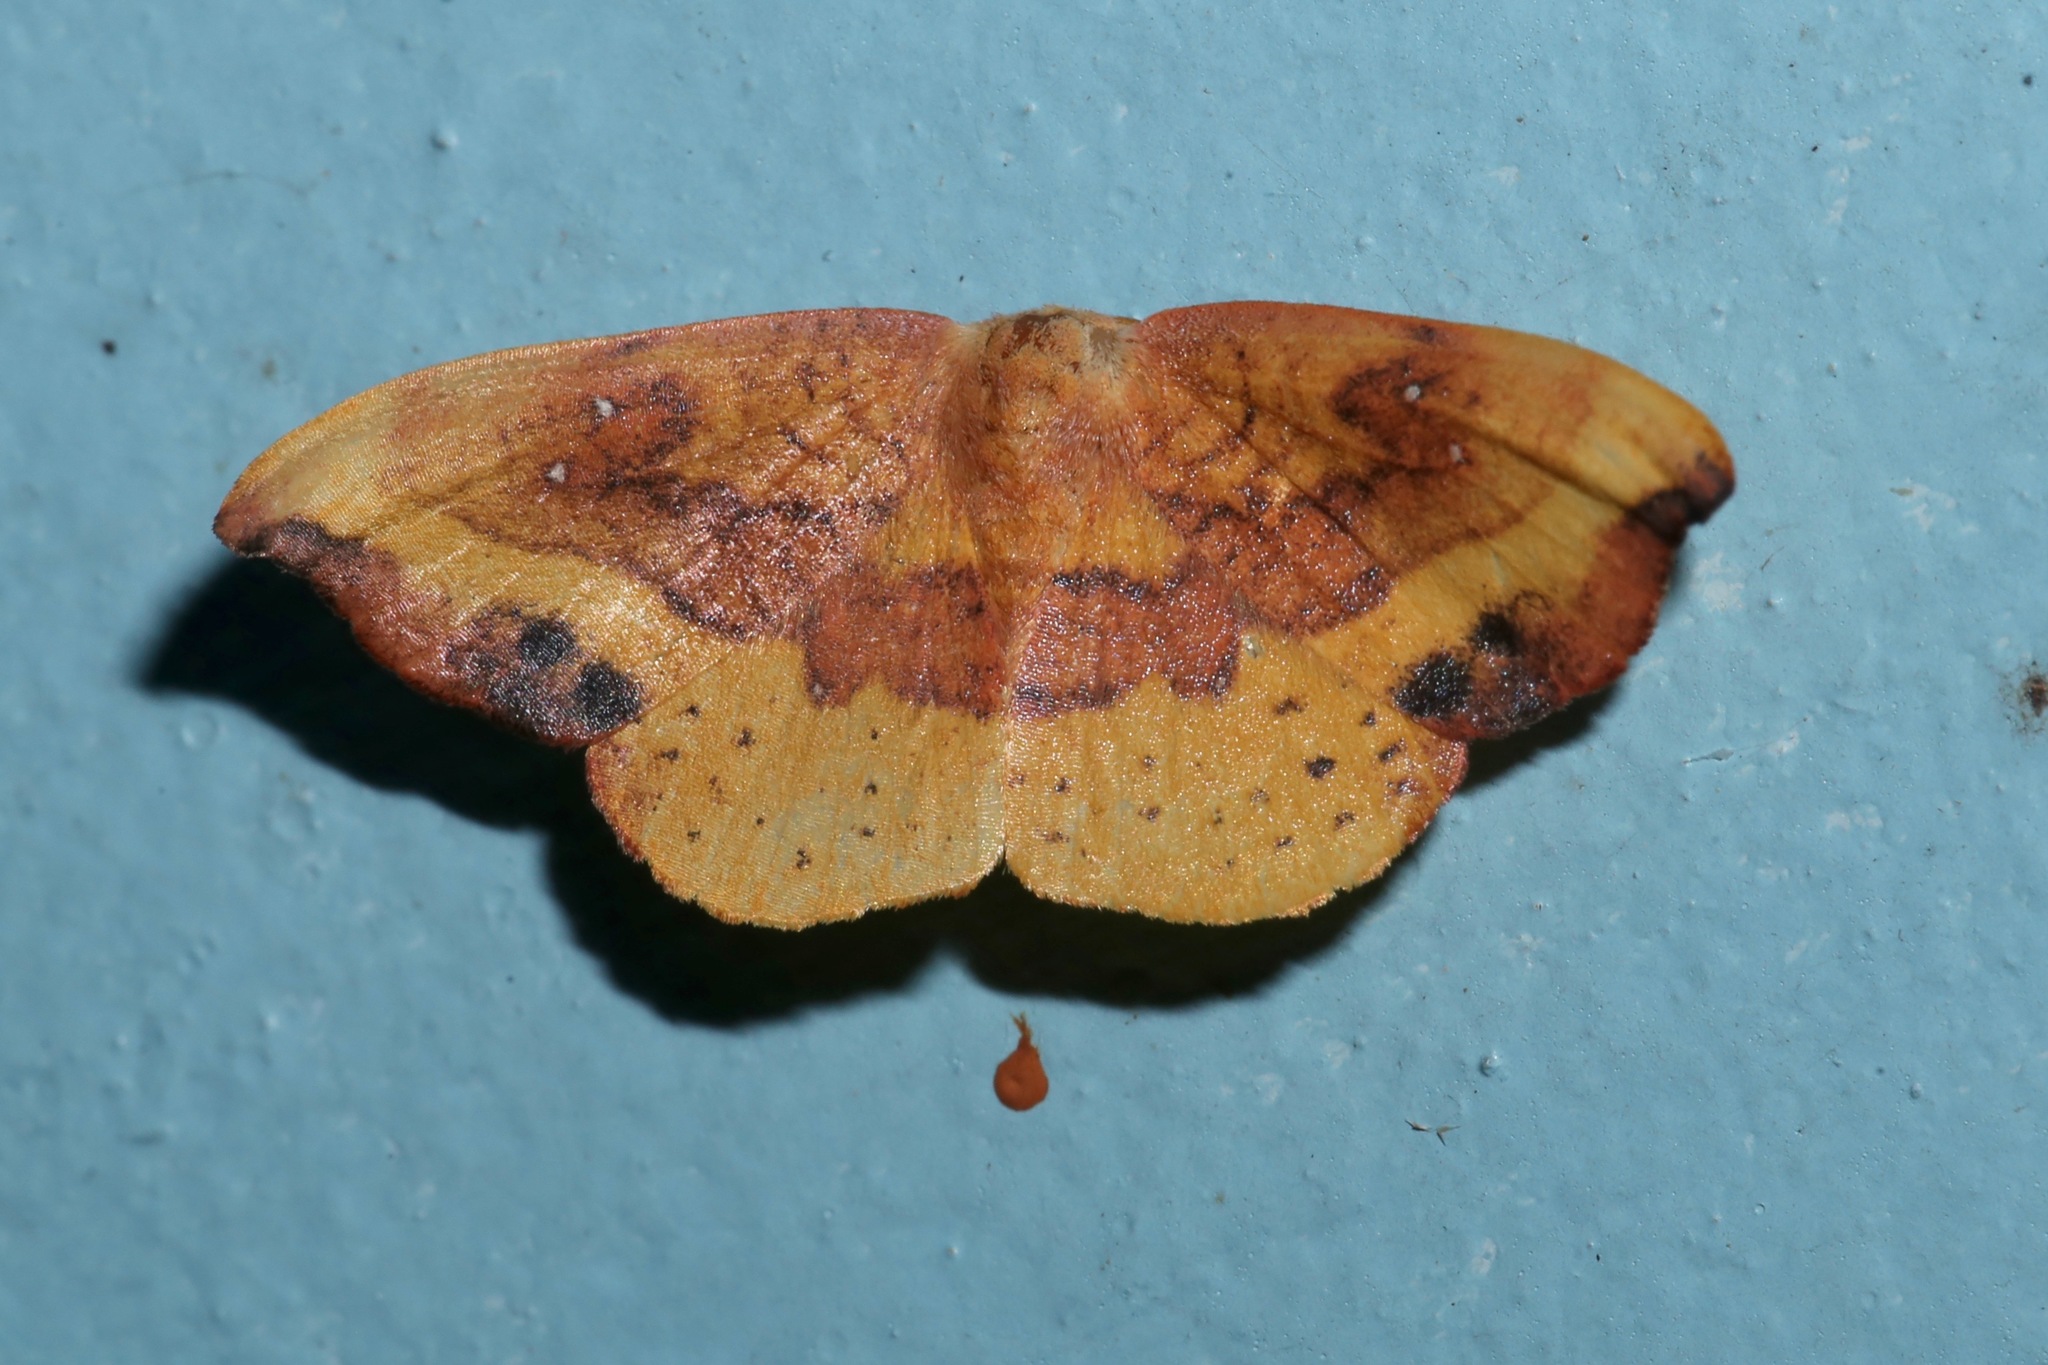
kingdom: Animalia
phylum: Arthropoda
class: Insecta
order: Lepidoptera
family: Drepanidae
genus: Oreta
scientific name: Oreta rosea
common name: Rose hooktip
